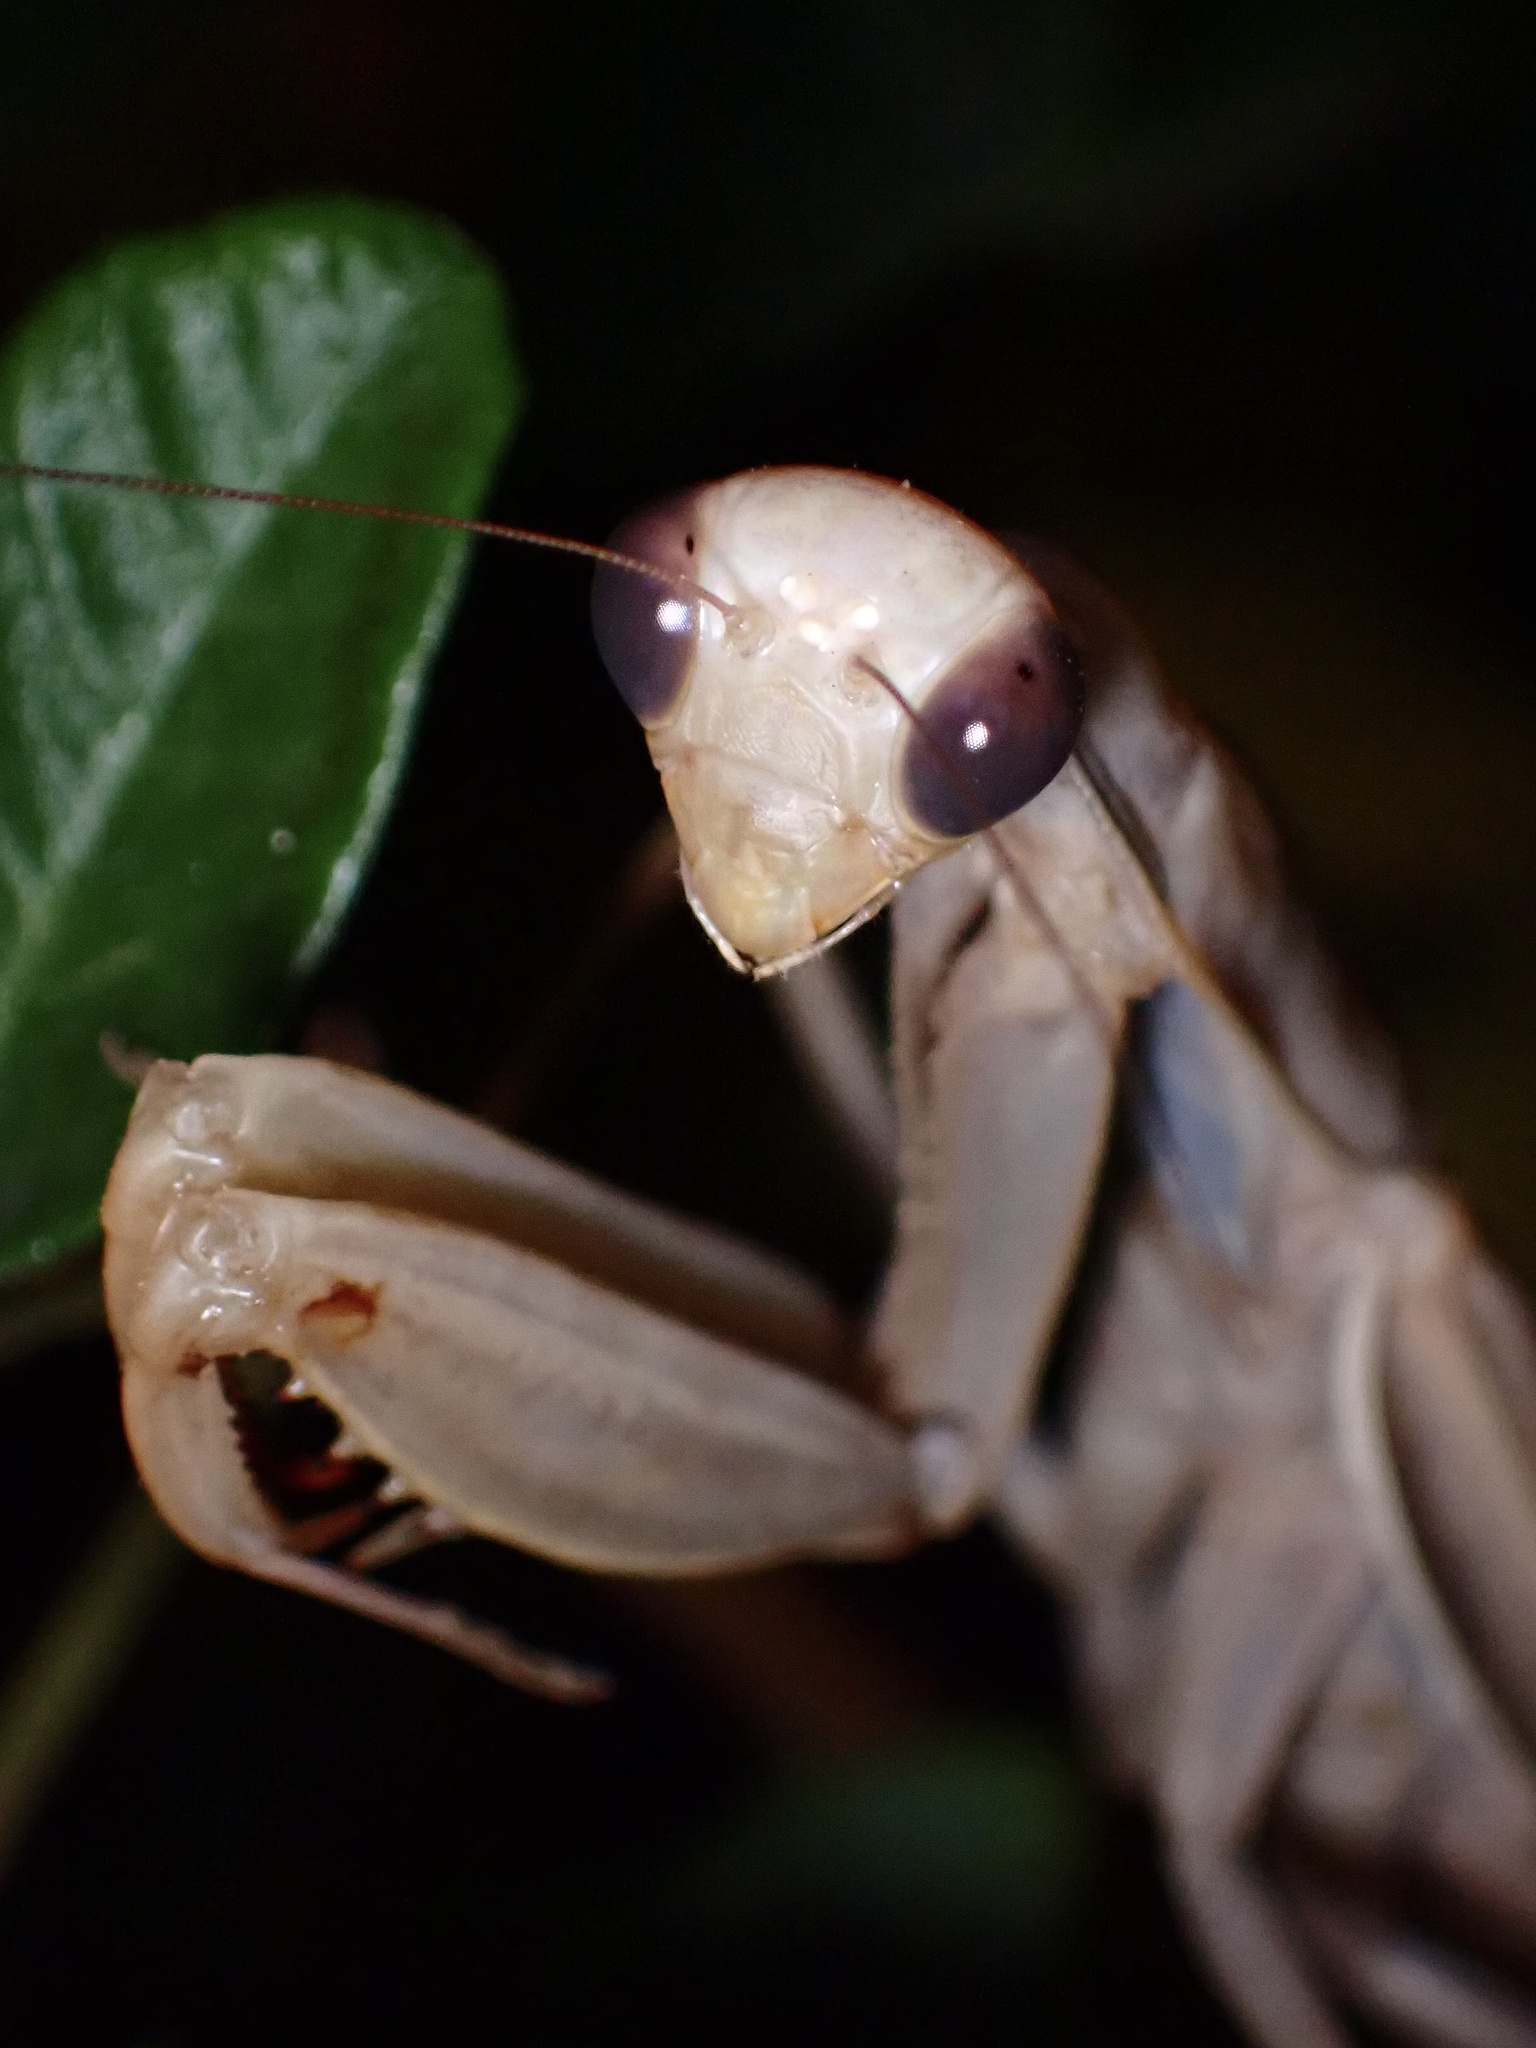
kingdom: Animalia
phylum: Arthropoda
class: Insecta
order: Mantodea
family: Mantidae
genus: Mantis
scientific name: Mantis religiosa
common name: Praying mantis
